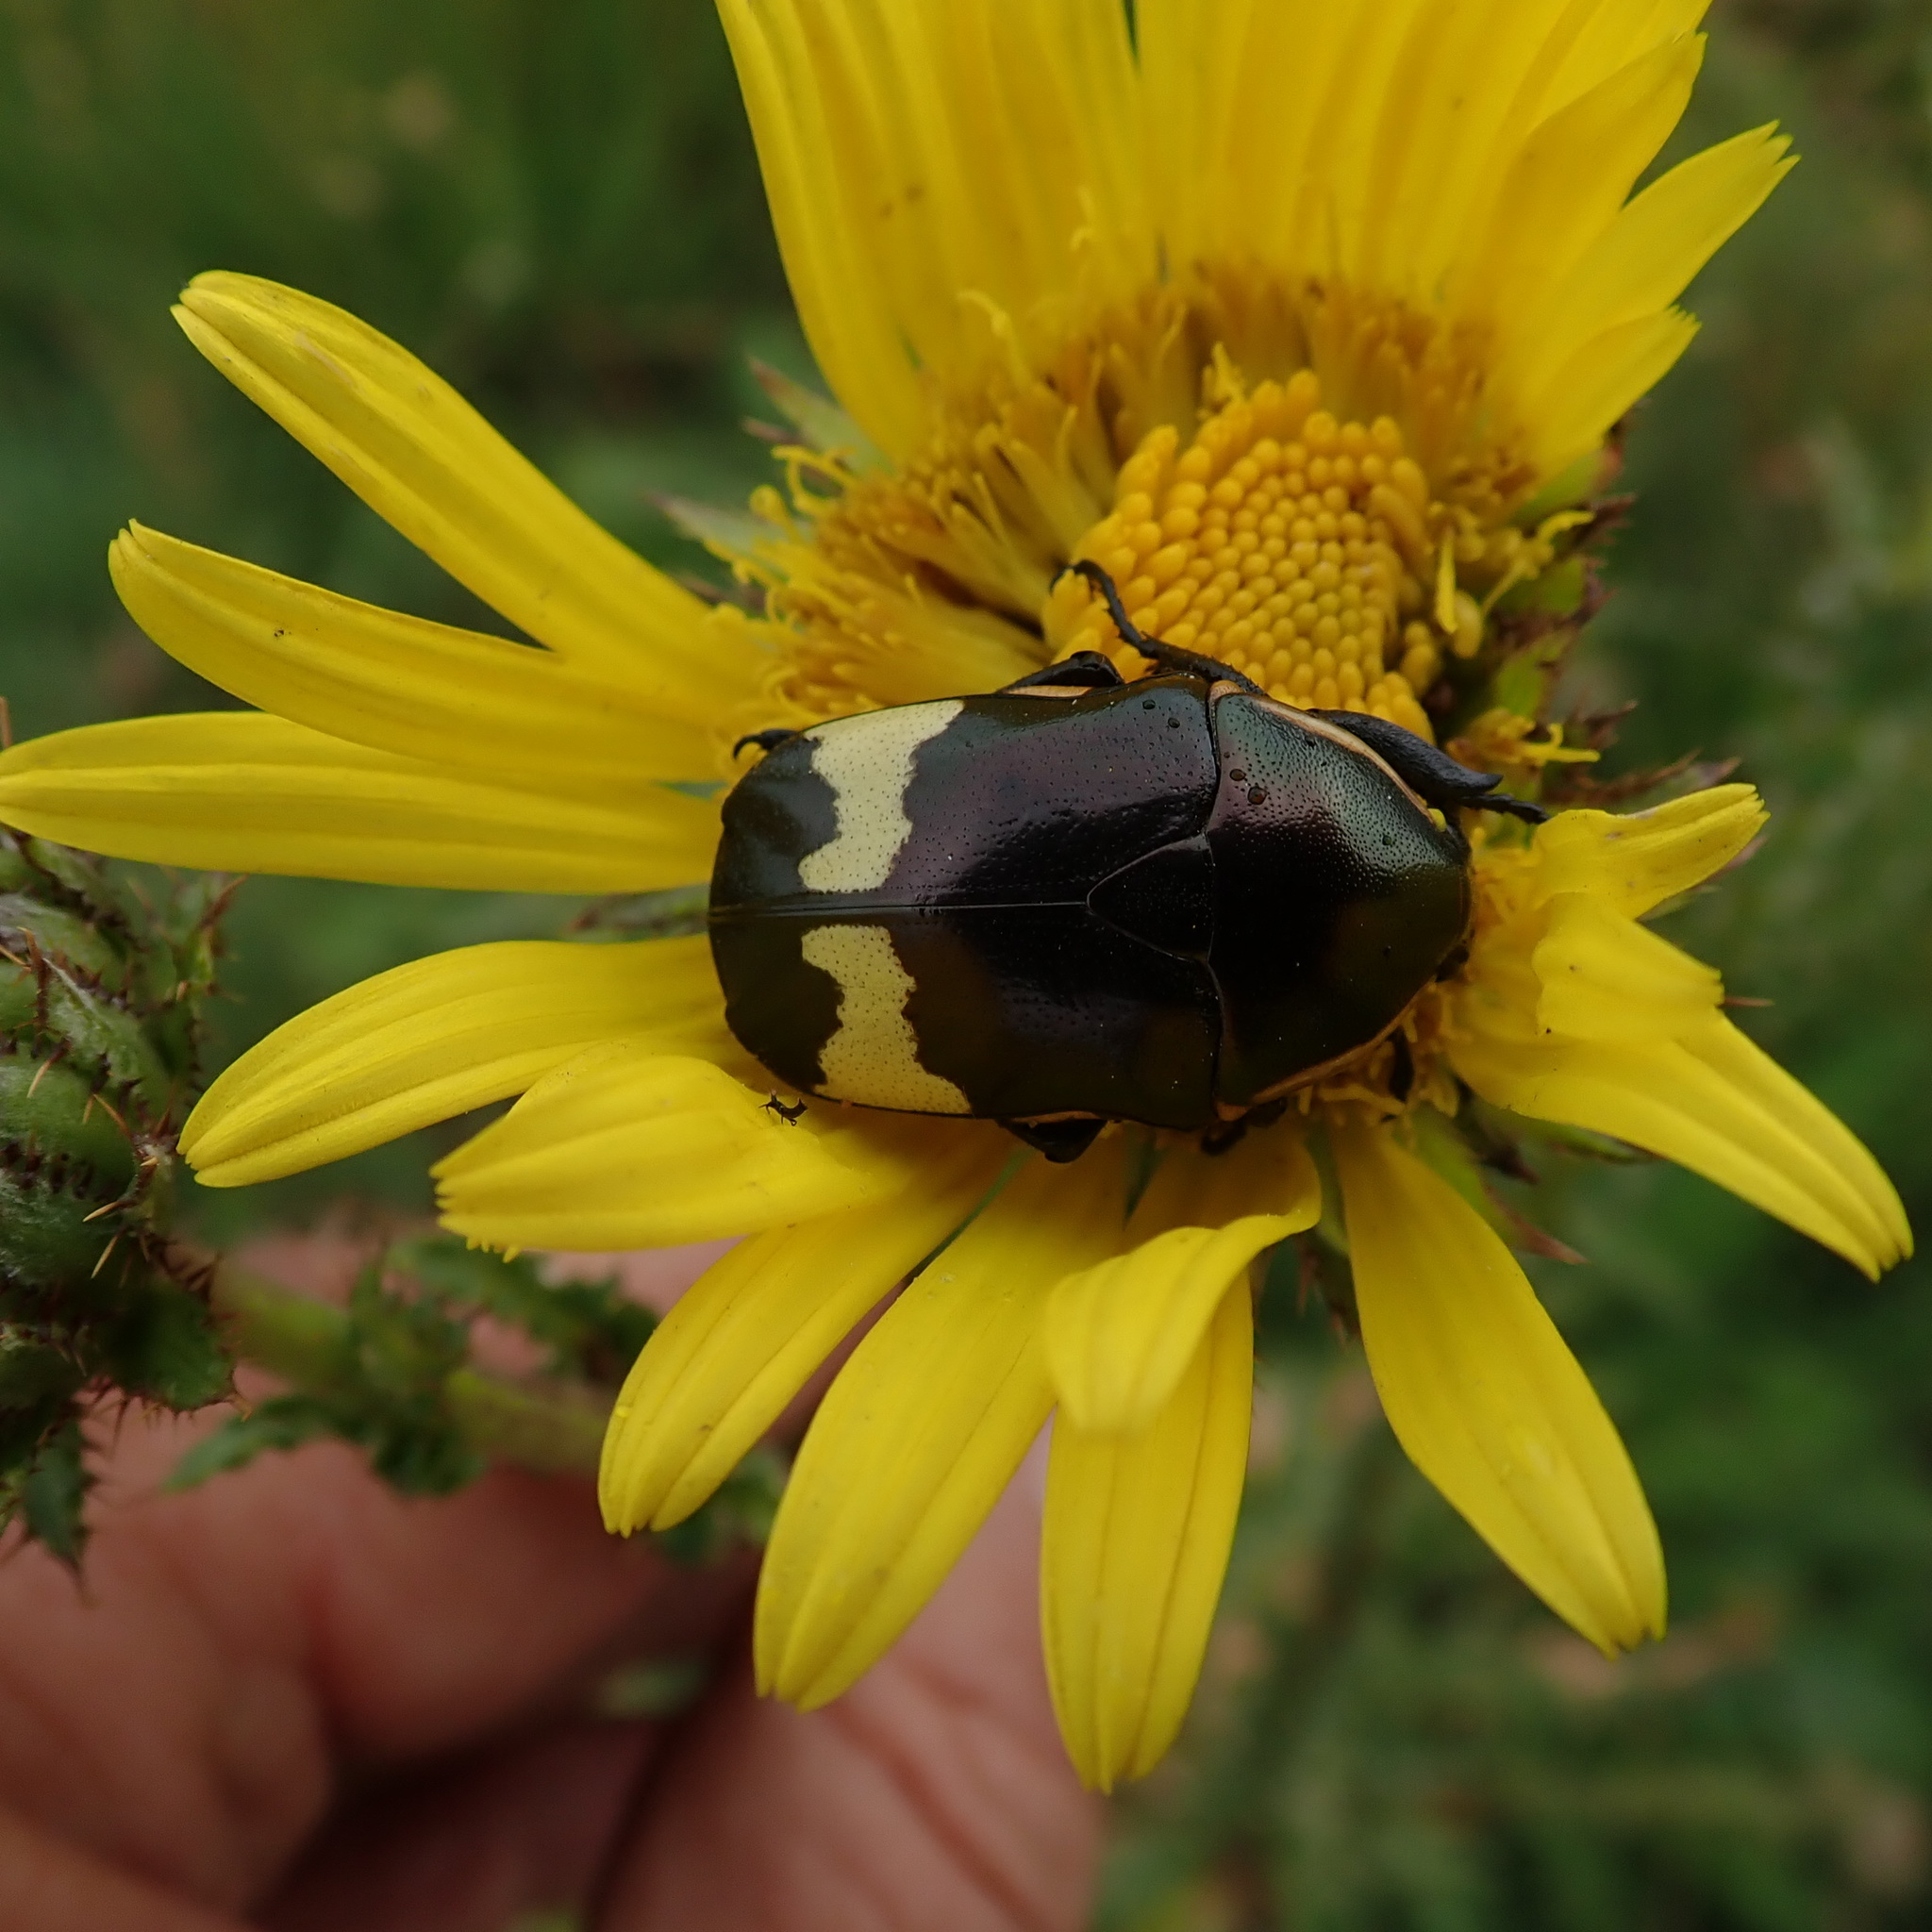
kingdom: Animalia
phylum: Arthropoda
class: Insecta
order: Coleoptera
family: Scarabaeidae
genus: Pedinorrhina
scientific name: Pedinorrhina
